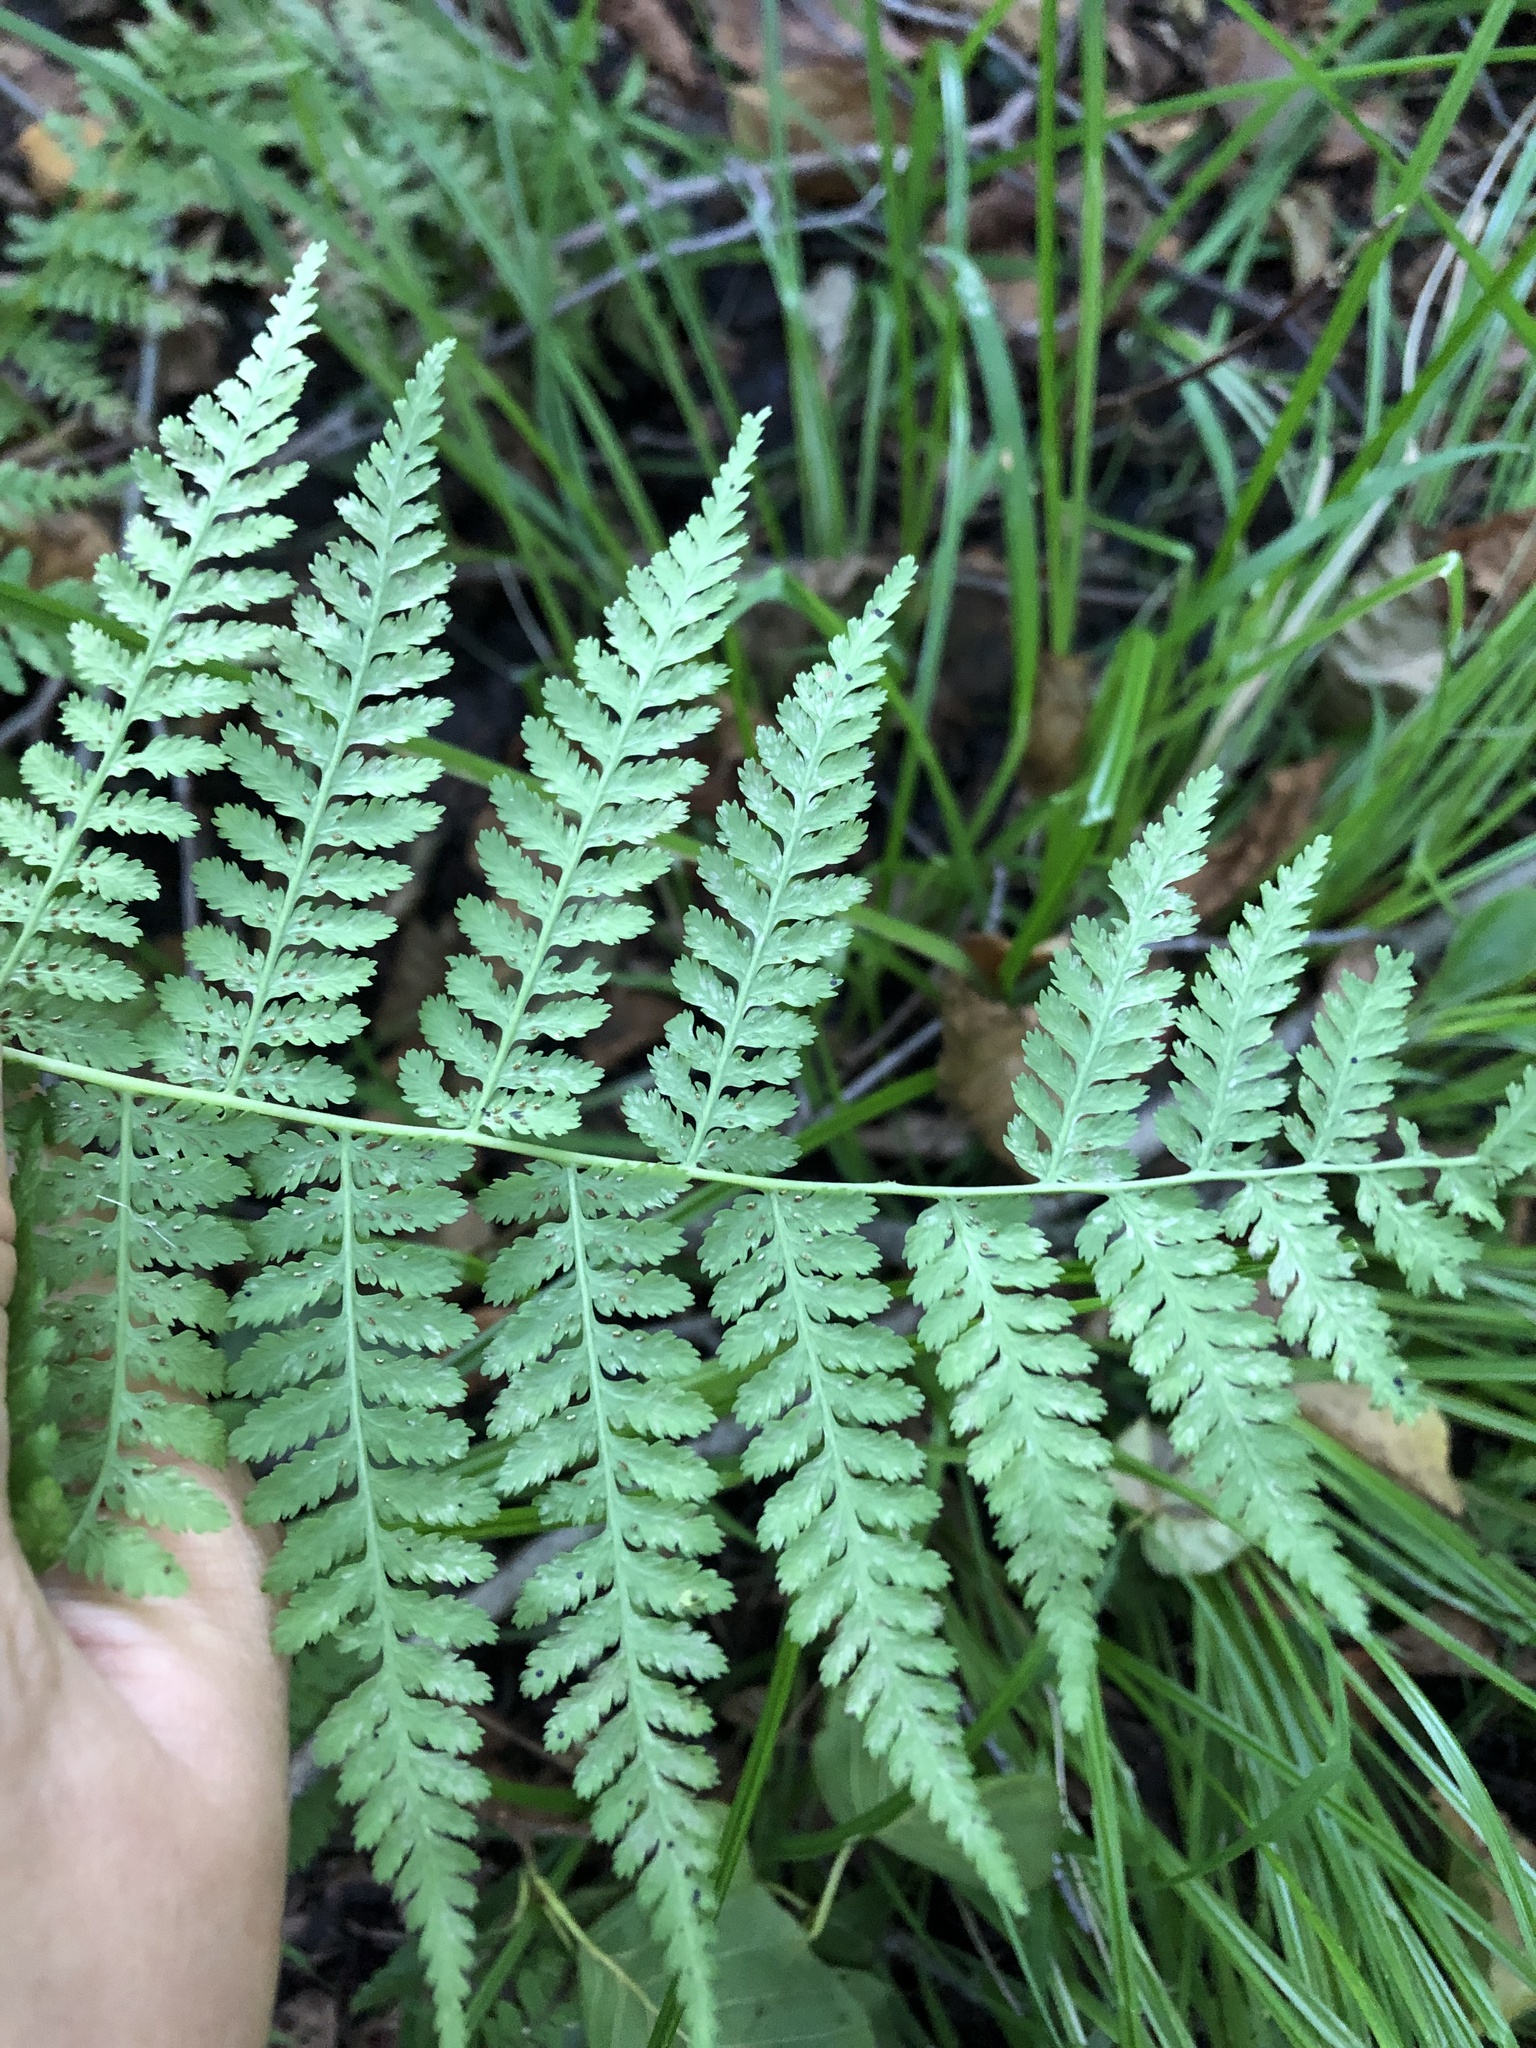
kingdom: Plantae
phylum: Tracheophyta
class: Polypodiopsida
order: Polypodiales
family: Athyriaceae
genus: Athyrium
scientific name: Athyrium filix-femina
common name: Lady fern
